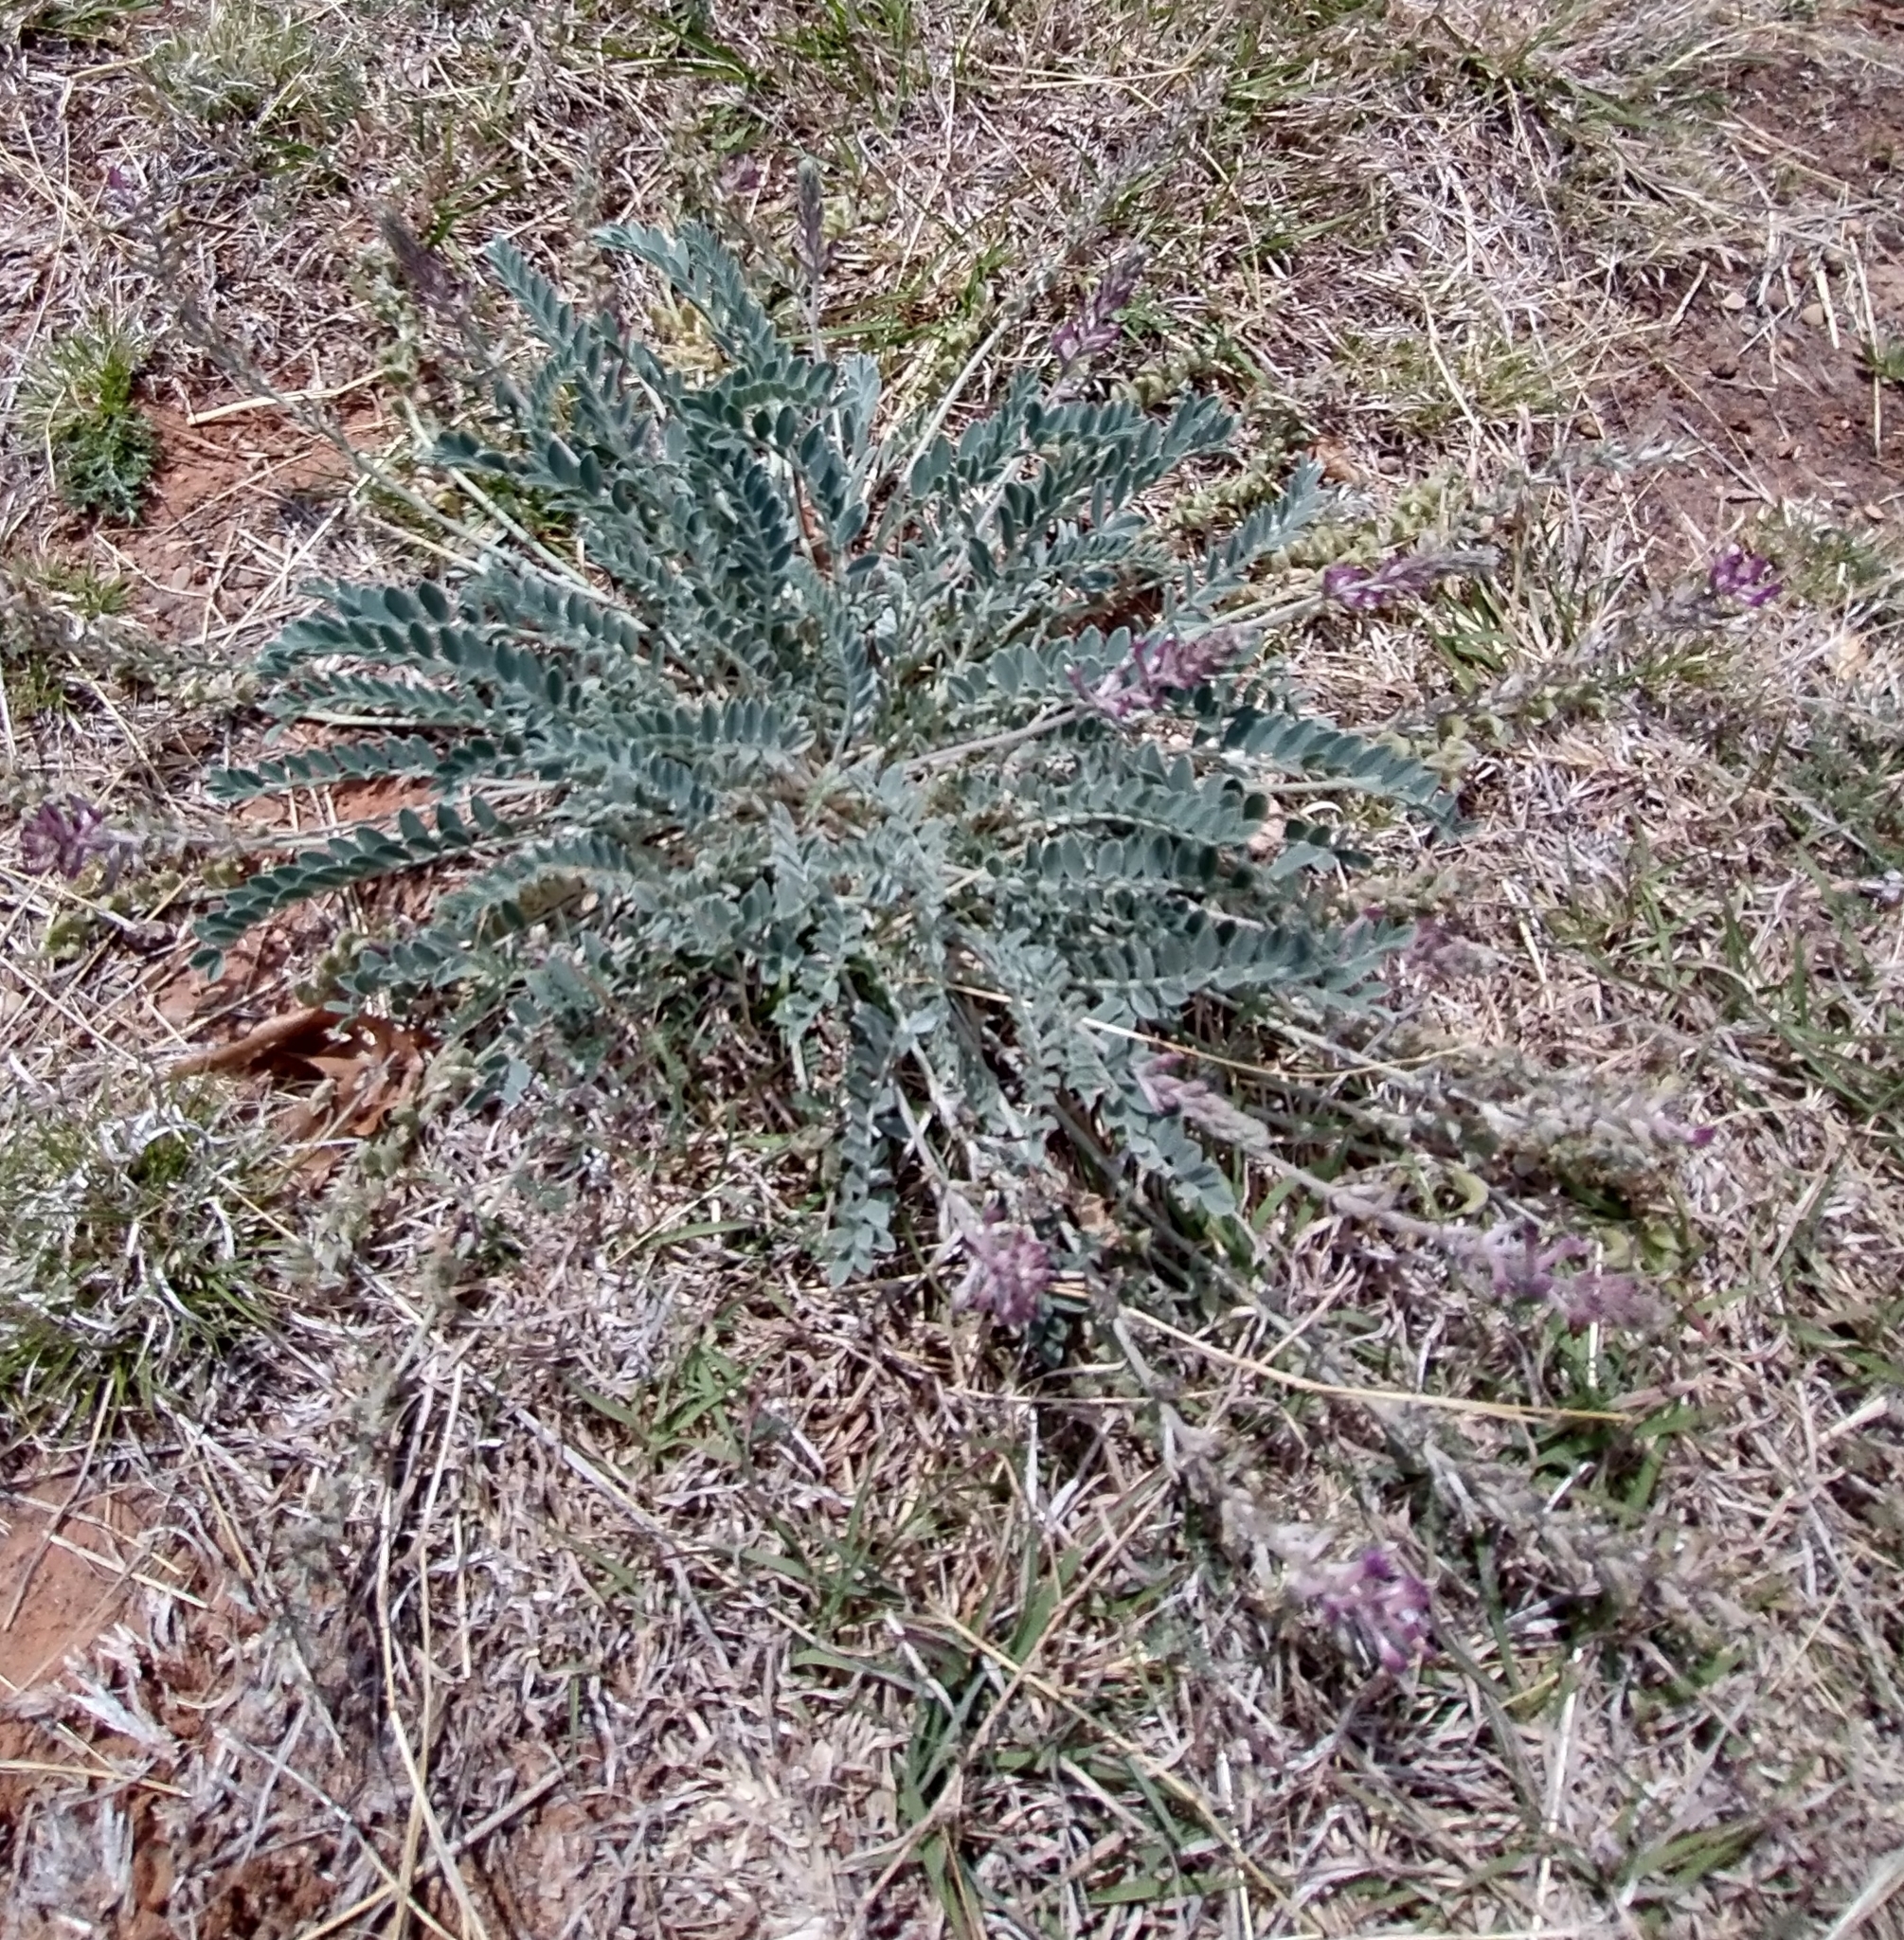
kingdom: Plantae
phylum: Tracheophyta
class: Magnoliopsida
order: Fabales
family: Fabaceae
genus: Astragalus
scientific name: Astragalus mollissimus
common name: Woolly locoweed
